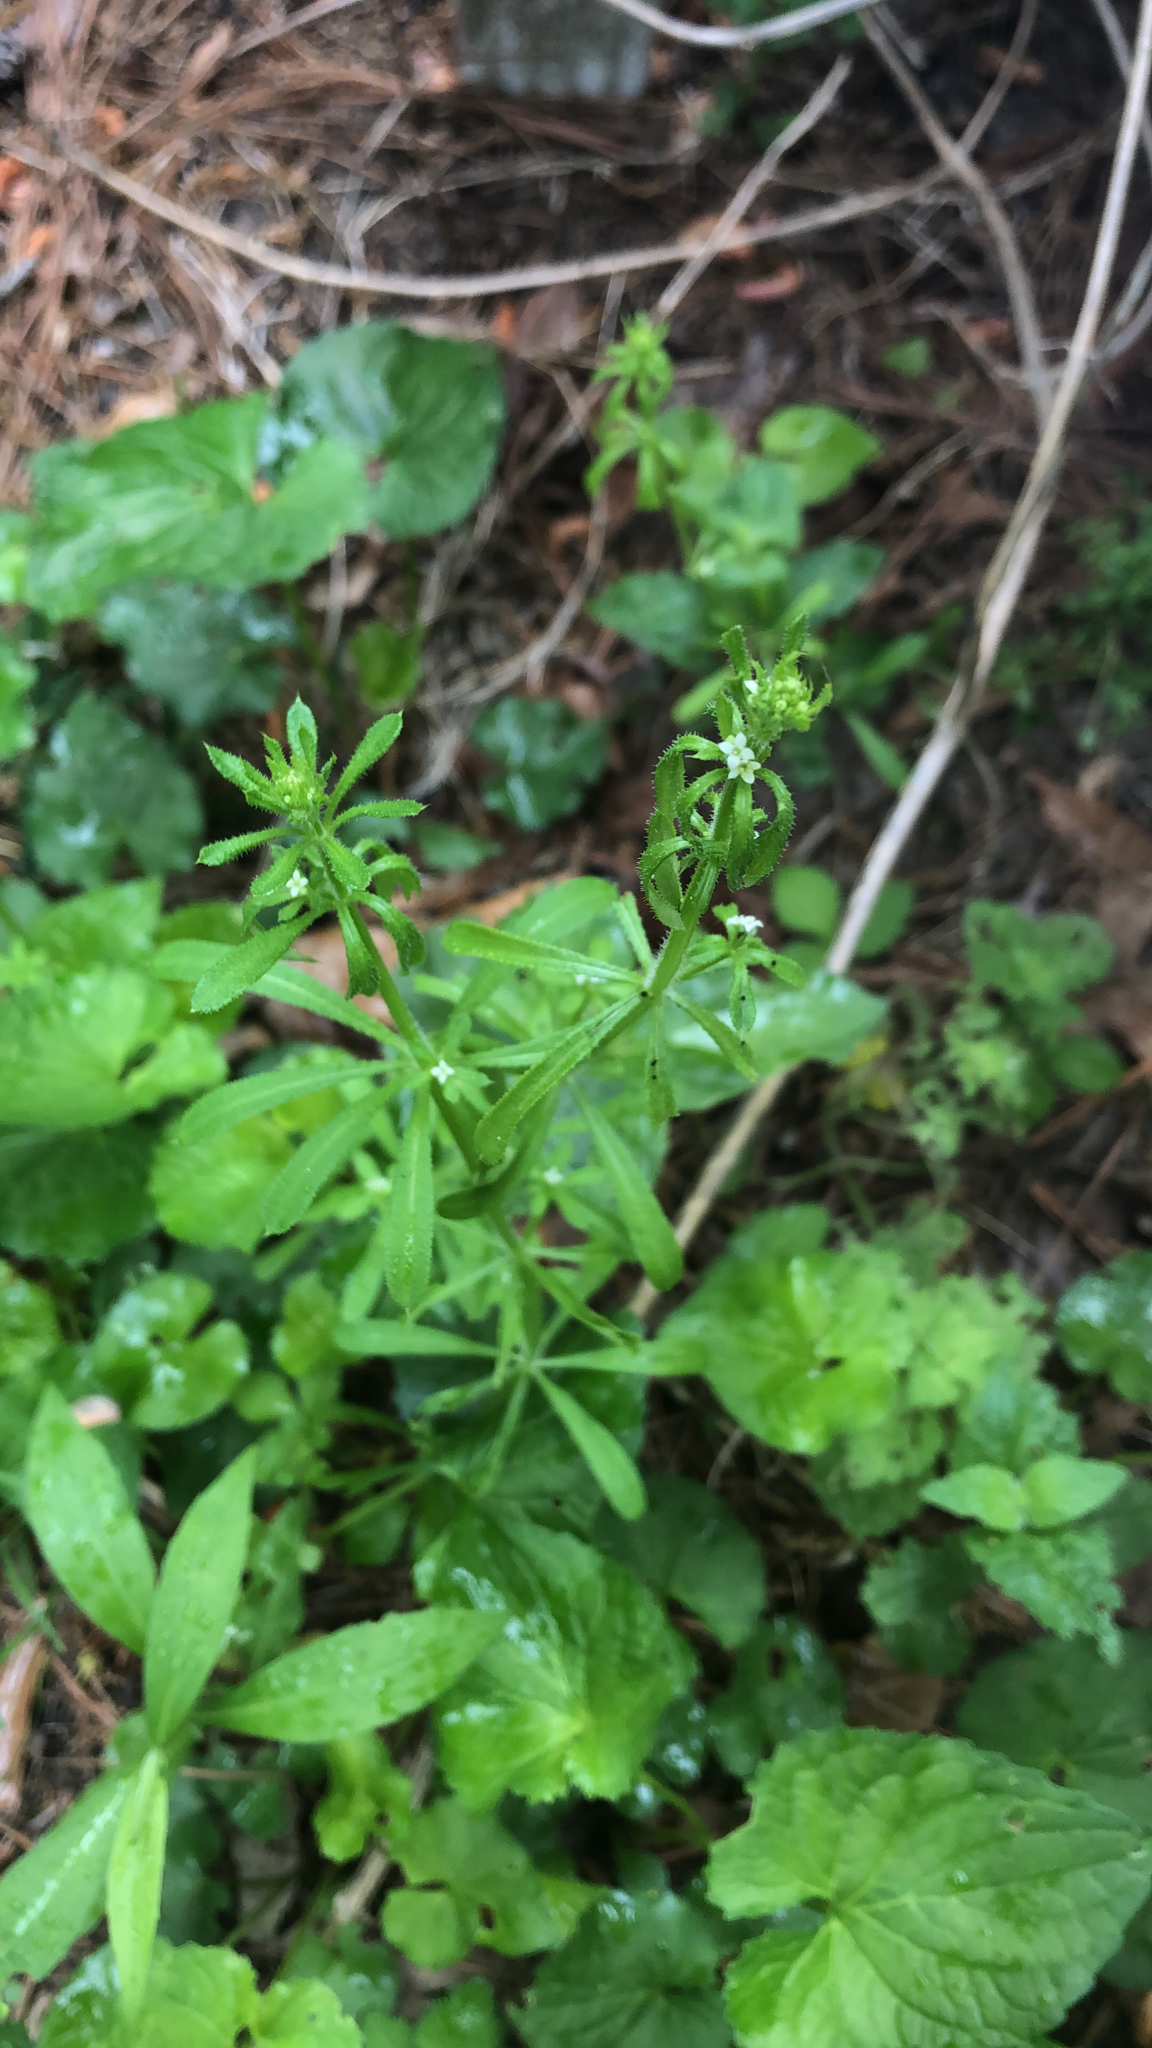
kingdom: Plantae
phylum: Tracheophyta
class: Magnoliopsida
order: Gentianales
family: Rubiaceae
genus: Galium
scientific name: Galium aparine
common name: Cleavers
